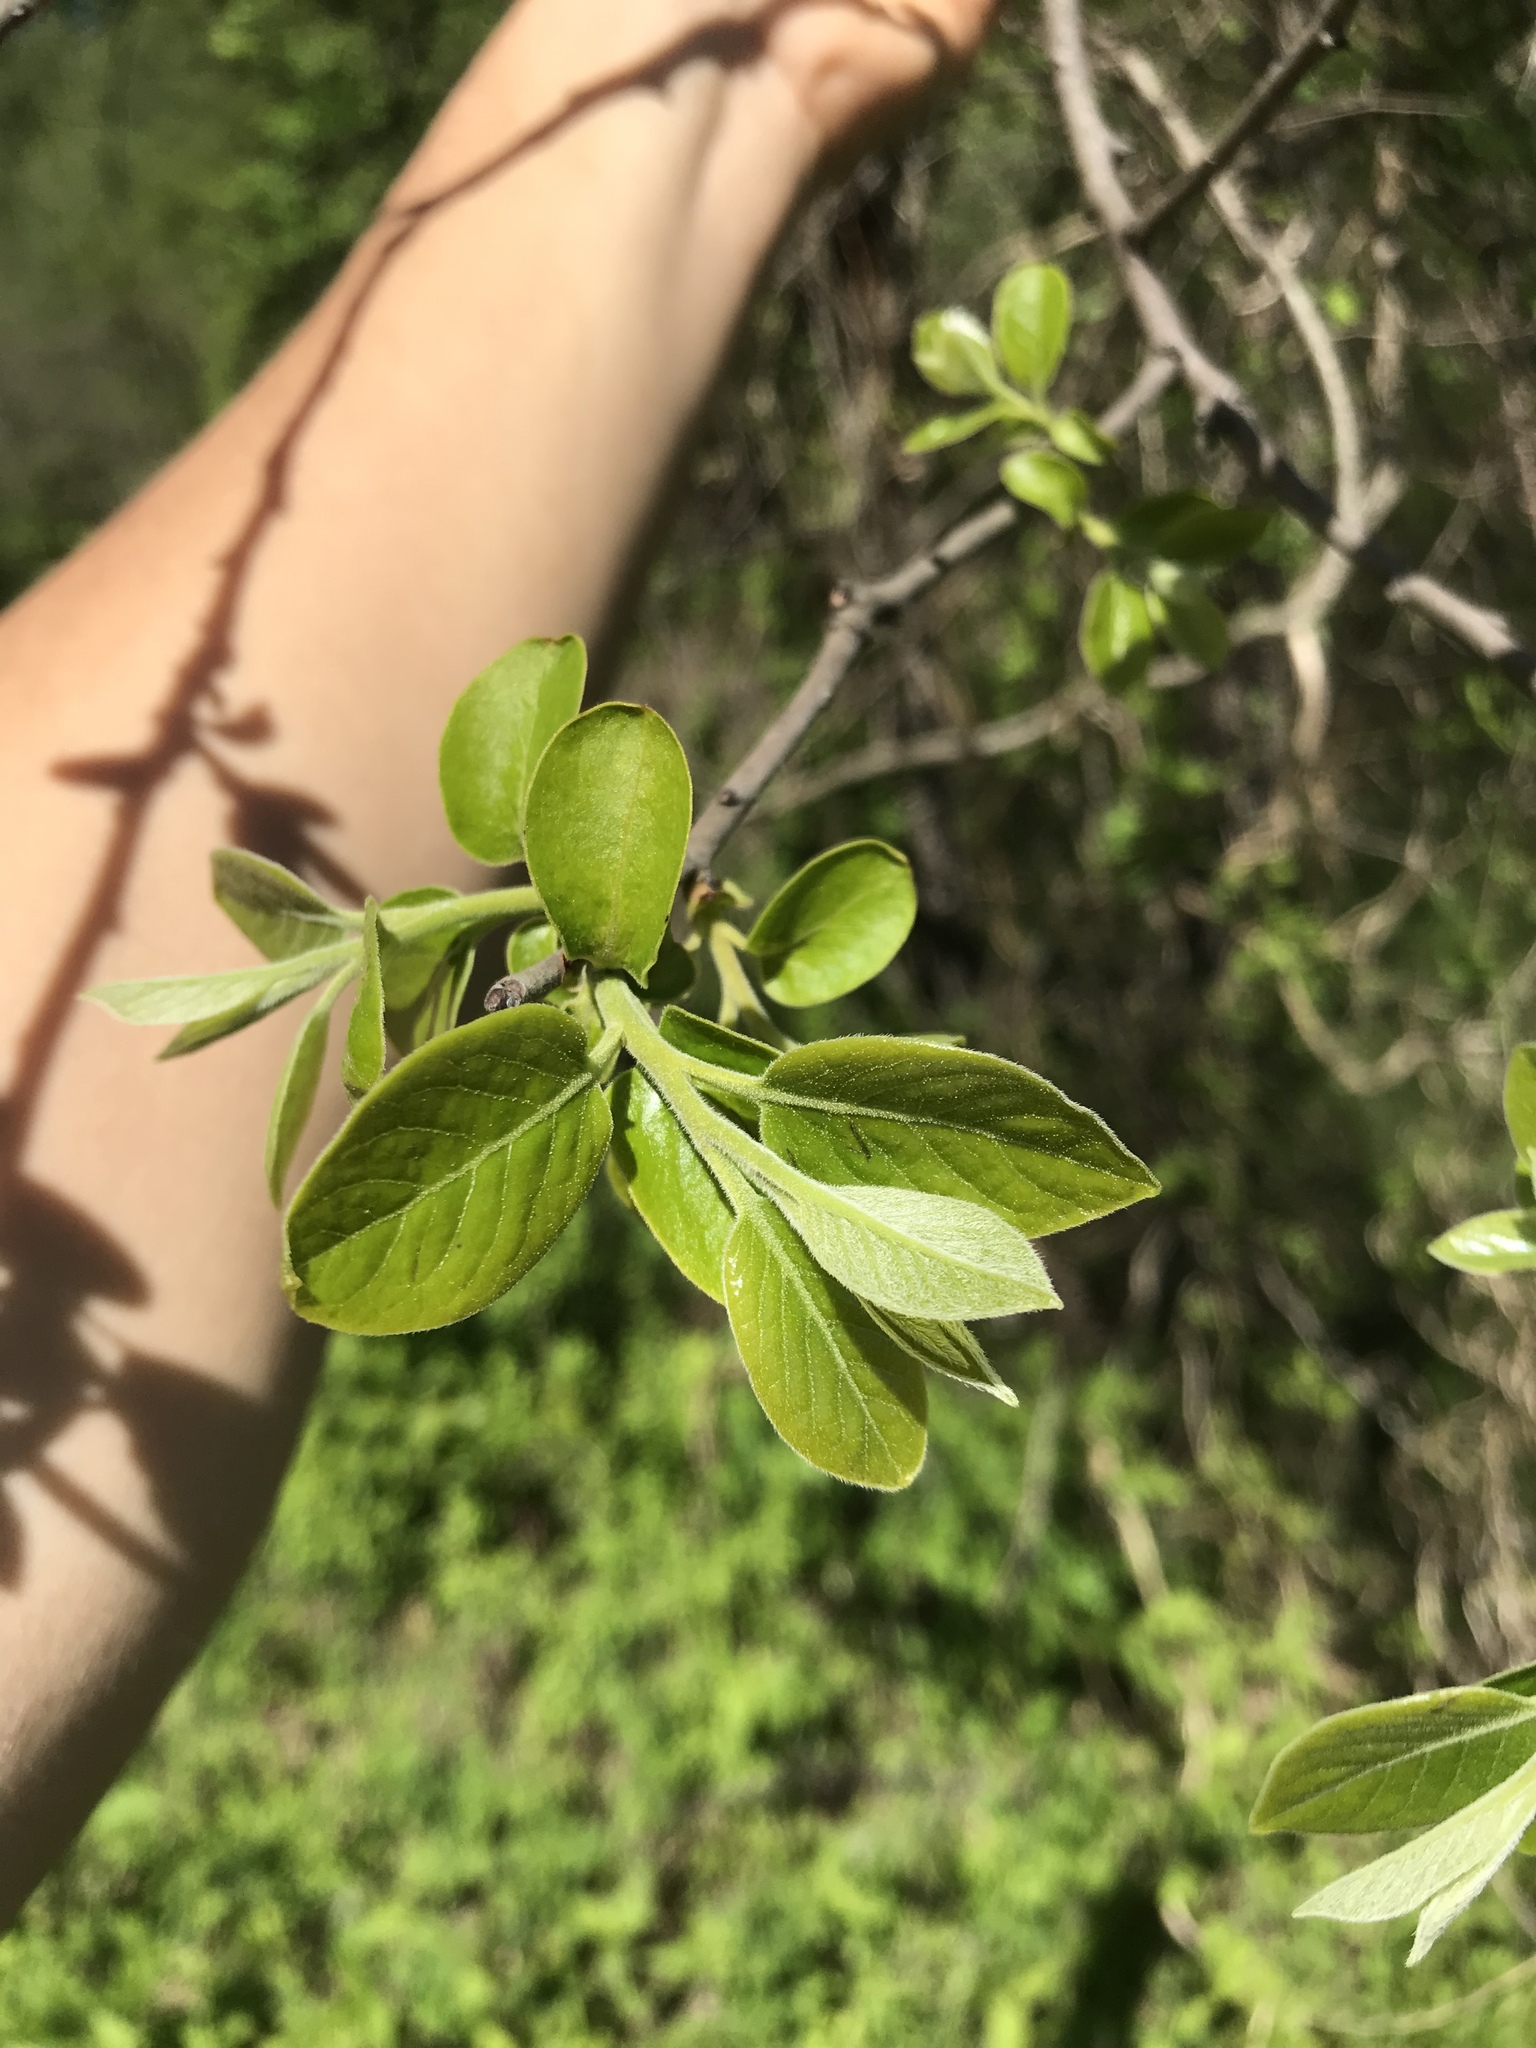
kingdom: Plantae
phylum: Tracheophyta
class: Magnoliopsida
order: Ericales
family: Ebenaceae
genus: Diospyros
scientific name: Diospyros virginiana
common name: Persimmon
